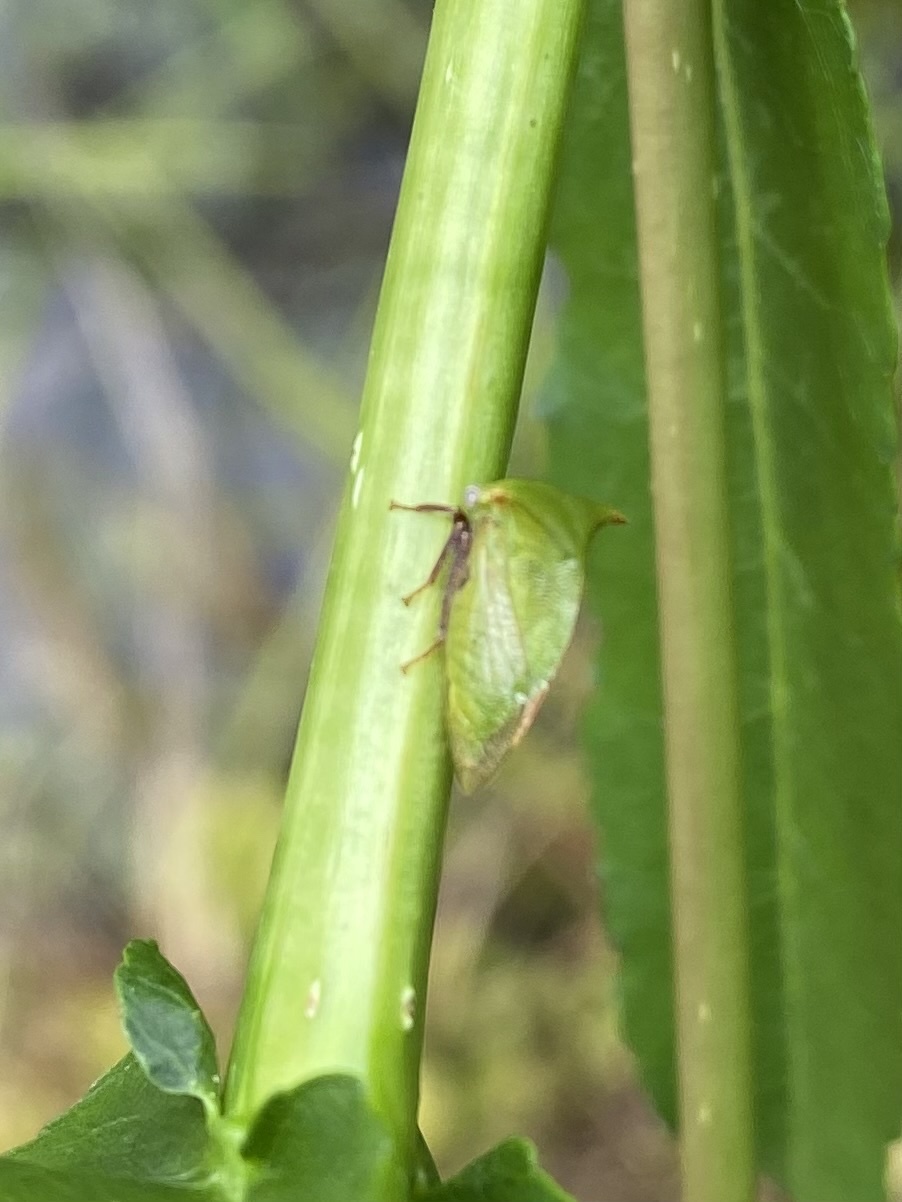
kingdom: Animalia
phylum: Arthropoda
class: Insecta
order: Hemiptera
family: Membracidae
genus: Stictocephala
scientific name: Stictocephala brevitylus
